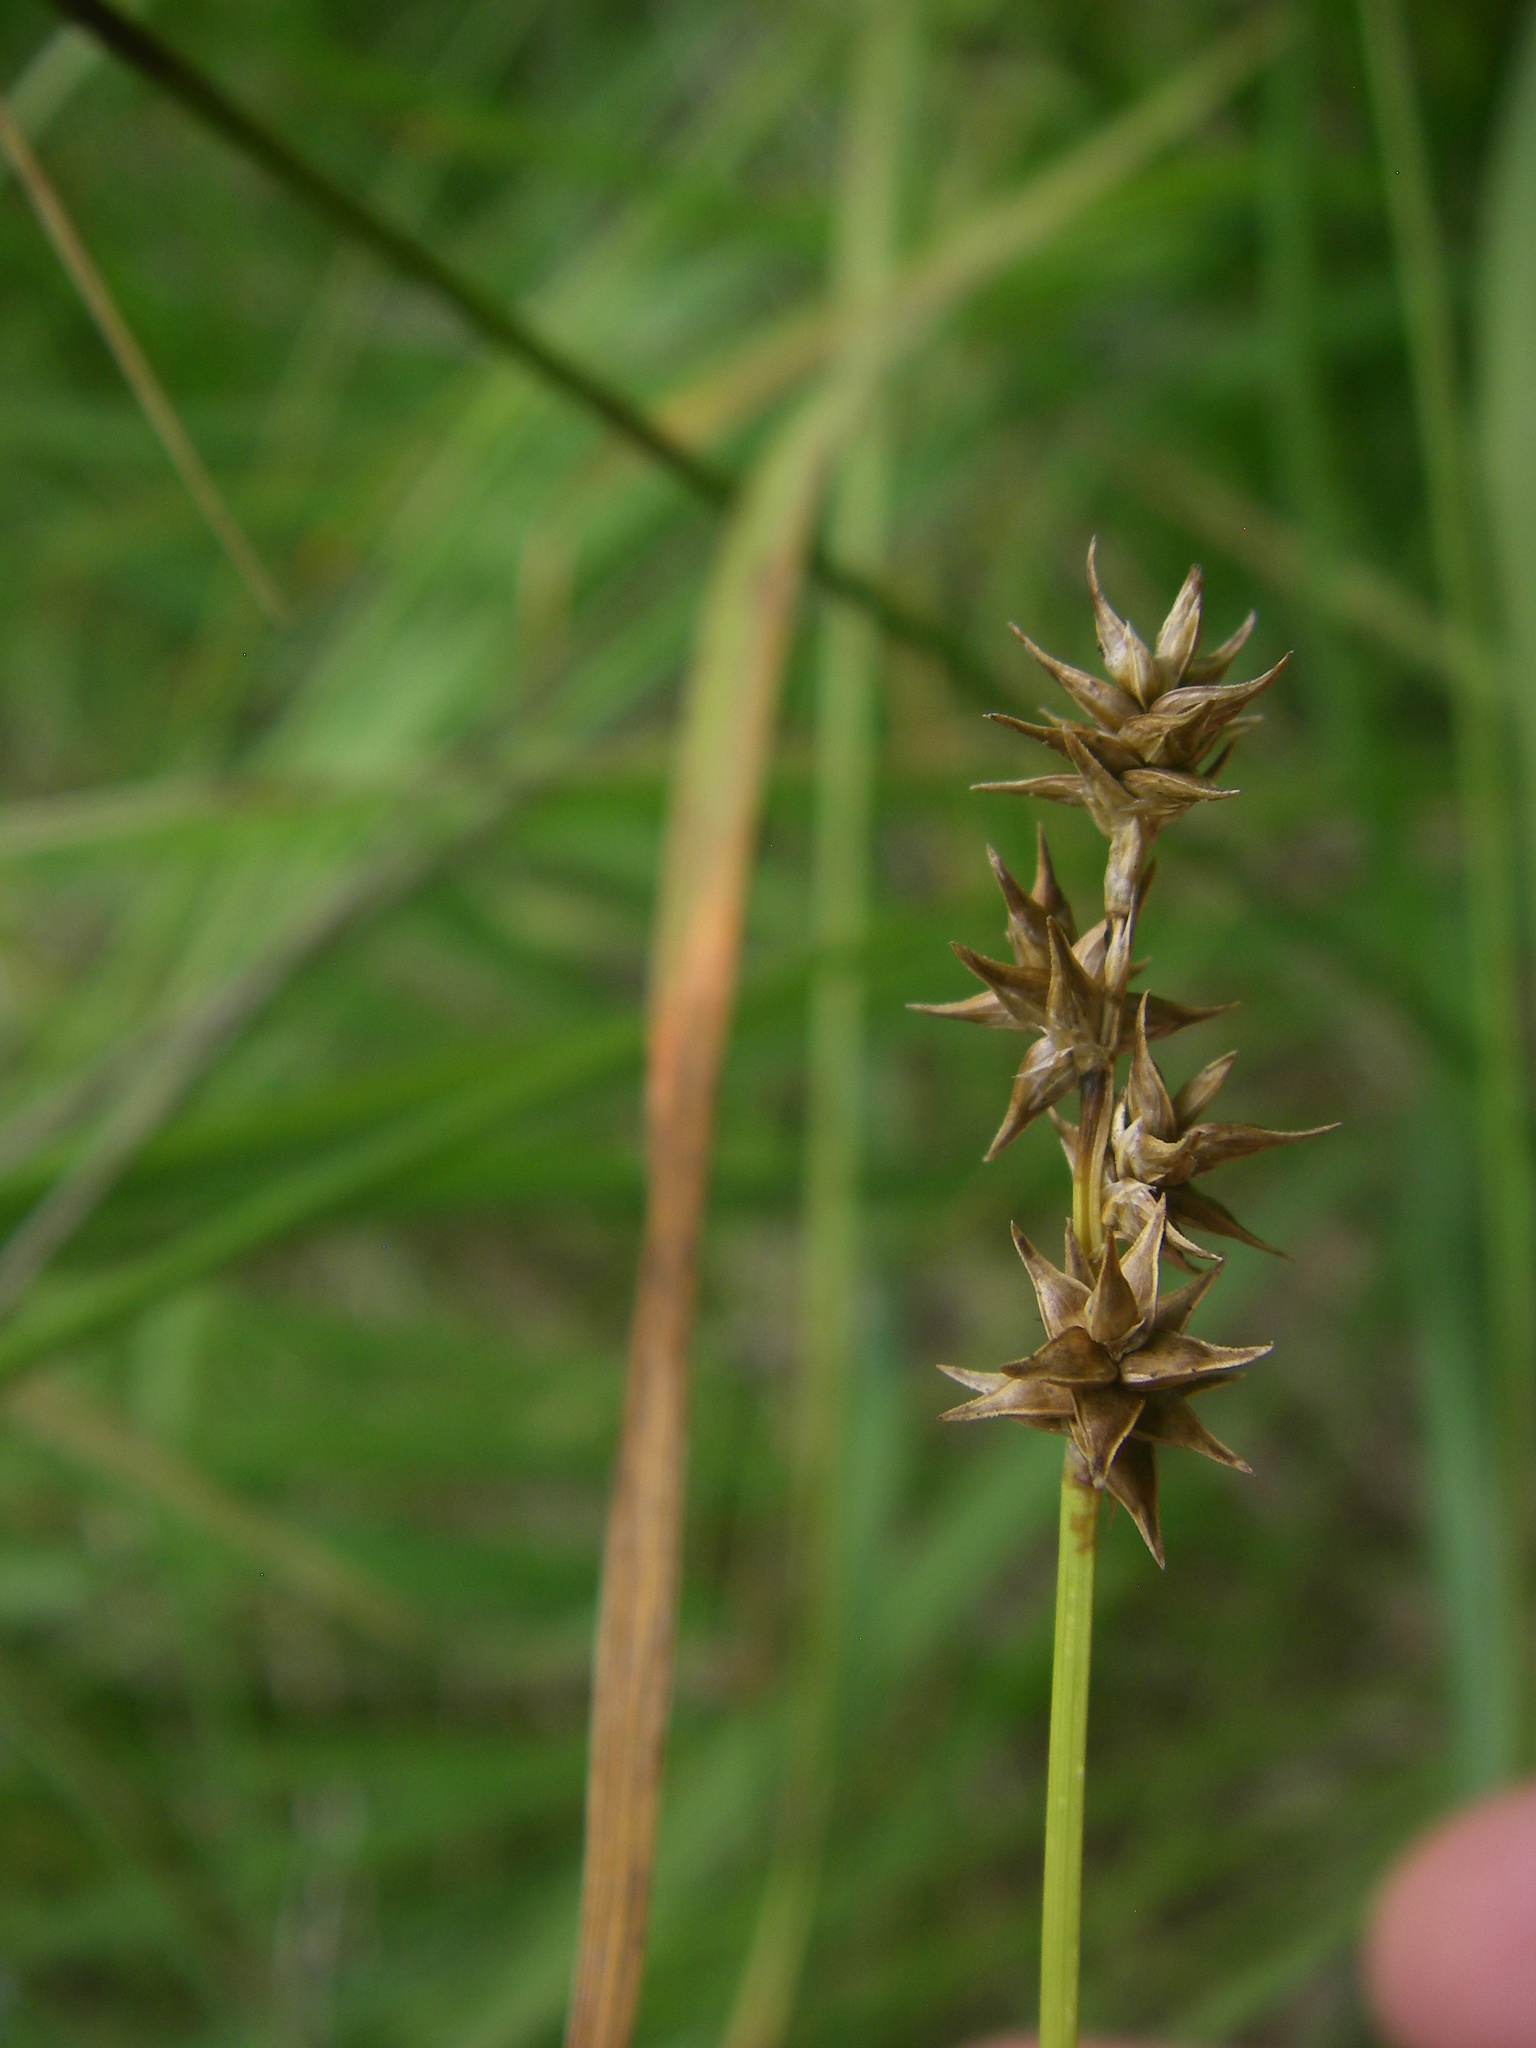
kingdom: Plantae
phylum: Tracheophyta
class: Liliopsida
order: Poales
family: Cyperaceae
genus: Carex
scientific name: Carex echinata
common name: Star sedge
